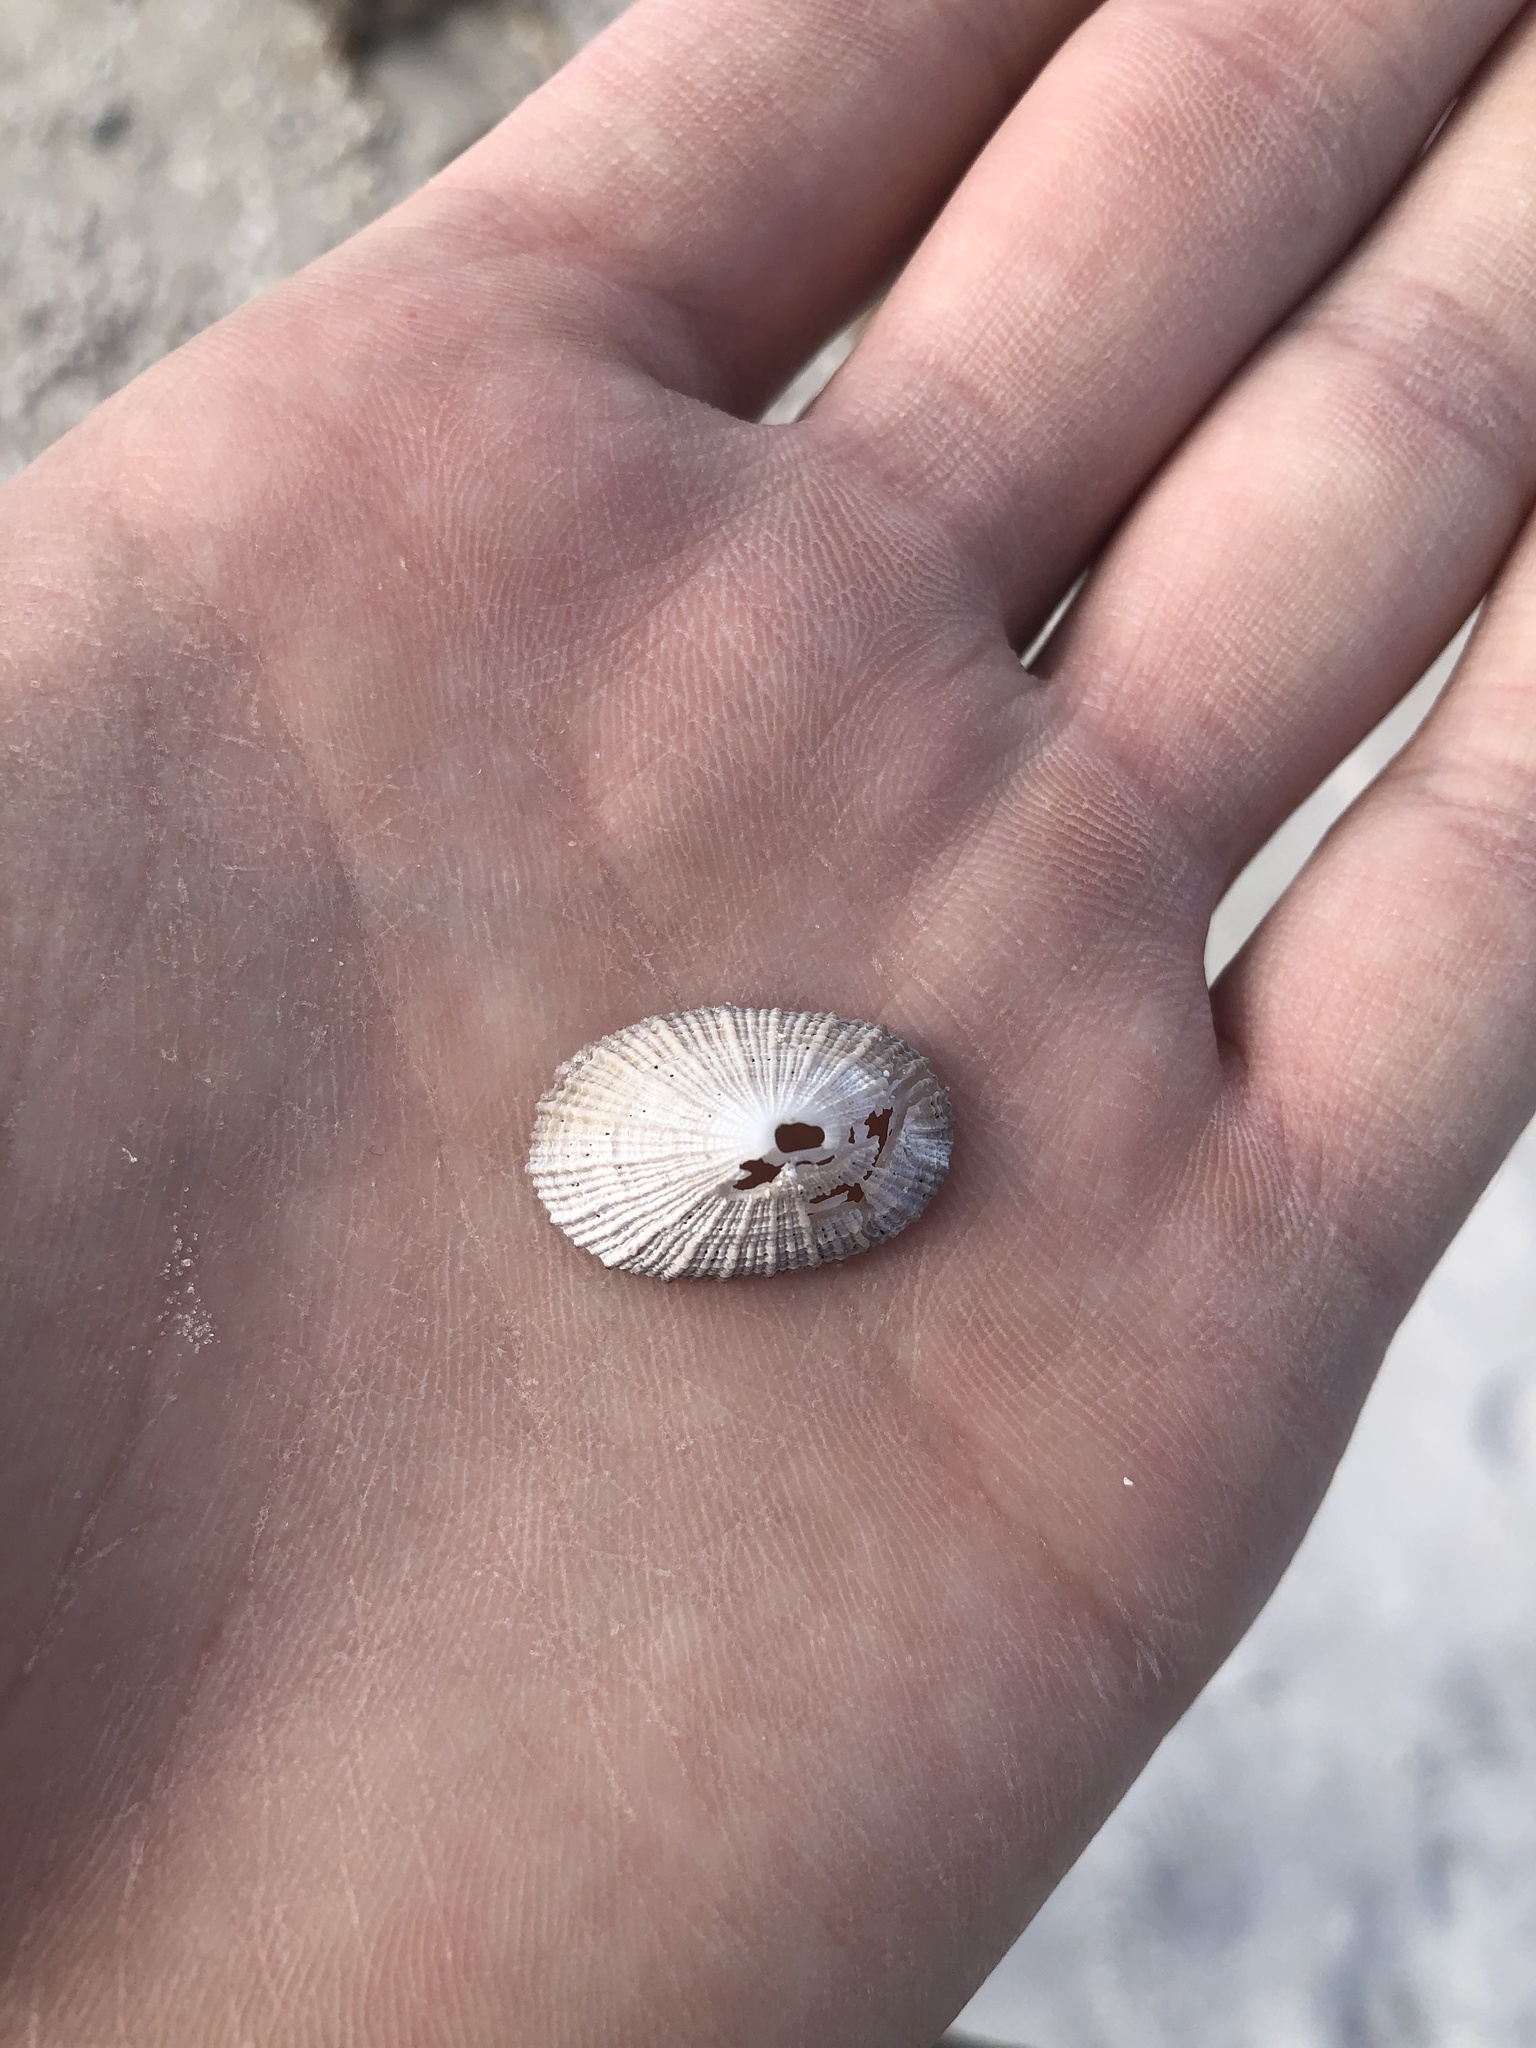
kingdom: Animalia
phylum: Mollusca
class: Gastropoda
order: Lepetellida
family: Fissurellidae
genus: Diodora
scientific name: Diodora cayenensis
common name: Cayenne keyhole limpet
